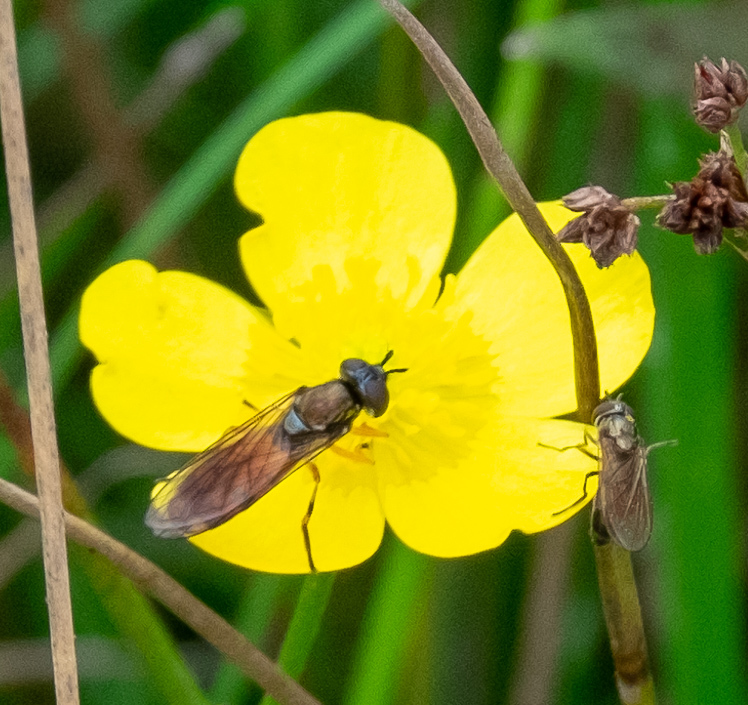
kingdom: Animalia
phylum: Arthropoda
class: Insecta
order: Diptera
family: Syrphidae
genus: Pyrophaena
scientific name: Pyrophaena granditarsa
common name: Hornhand sedgesitter
